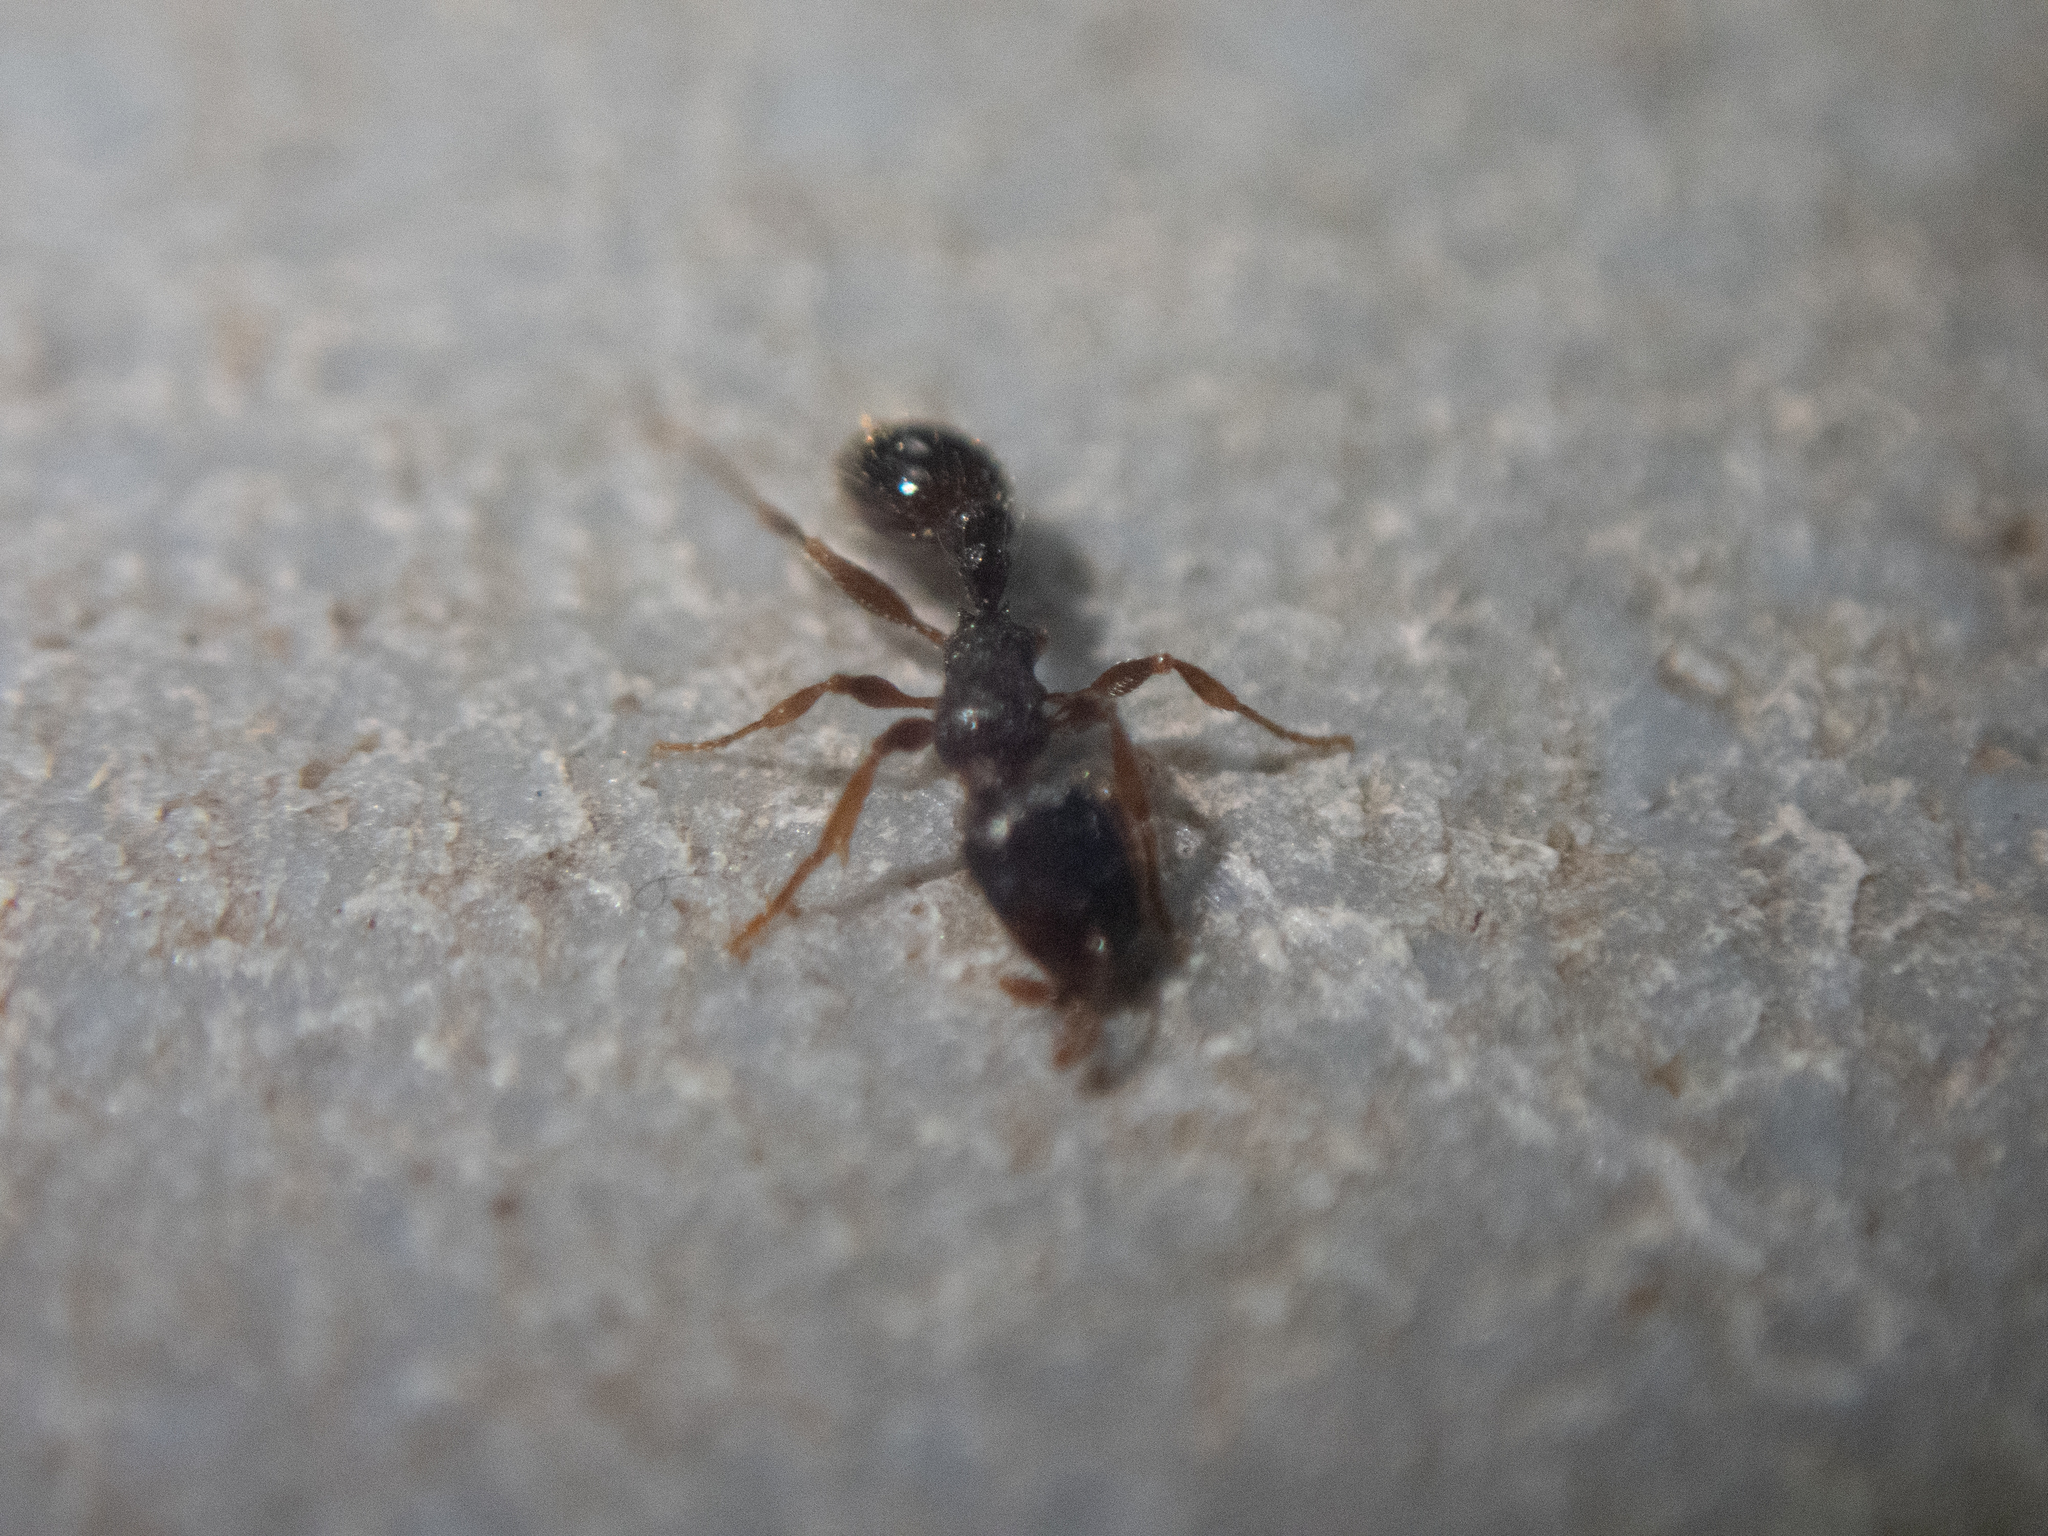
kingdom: Animalia
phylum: Arthropoda
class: Insecta
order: Hymenoptera
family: Formicidae
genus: Tetramorium
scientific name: Tetramorium immigrans
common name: Pavement ant
